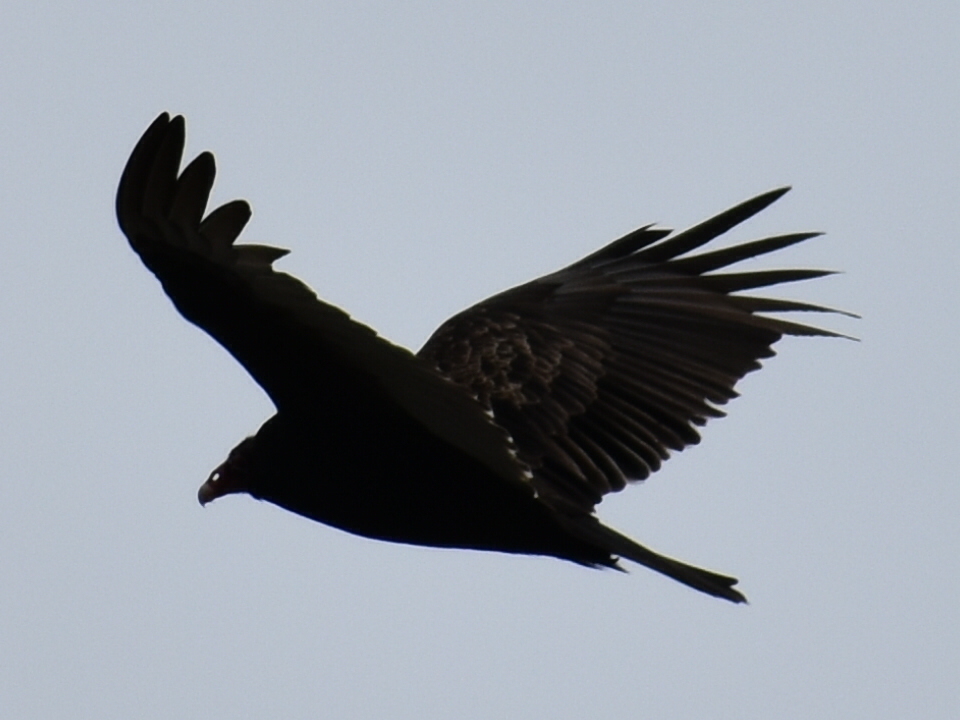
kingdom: Animalia
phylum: Chordata
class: Aves
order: Accipitriformes
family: Cathartidae
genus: Cathartes
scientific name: Cathartes aura
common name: Turkey vulture
